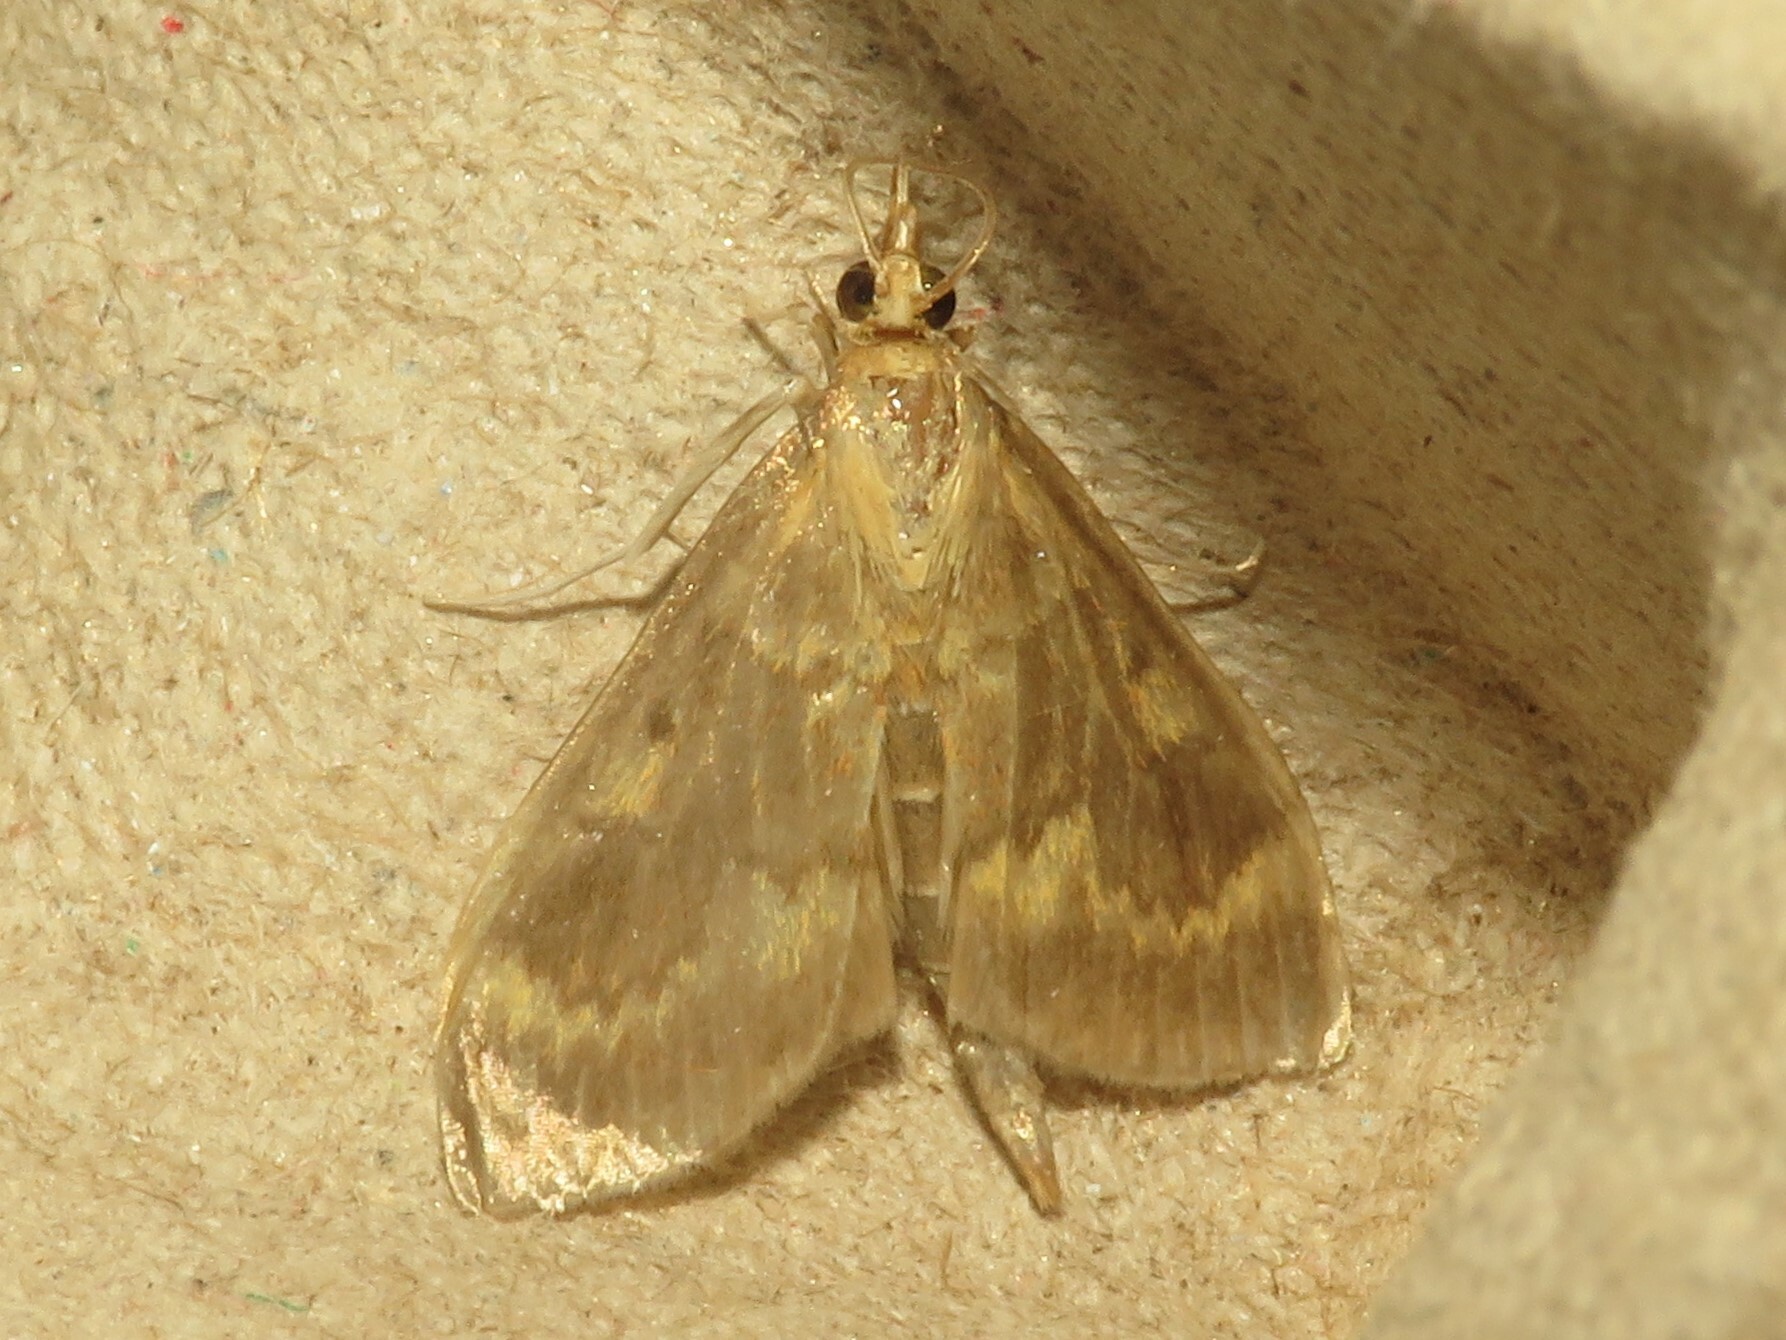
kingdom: Animalia
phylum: Arthropoda
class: Insecta
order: Lepidoptera
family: Crambidae
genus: Ostrinia
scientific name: Ostrinia nubilalis
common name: European corn borer
